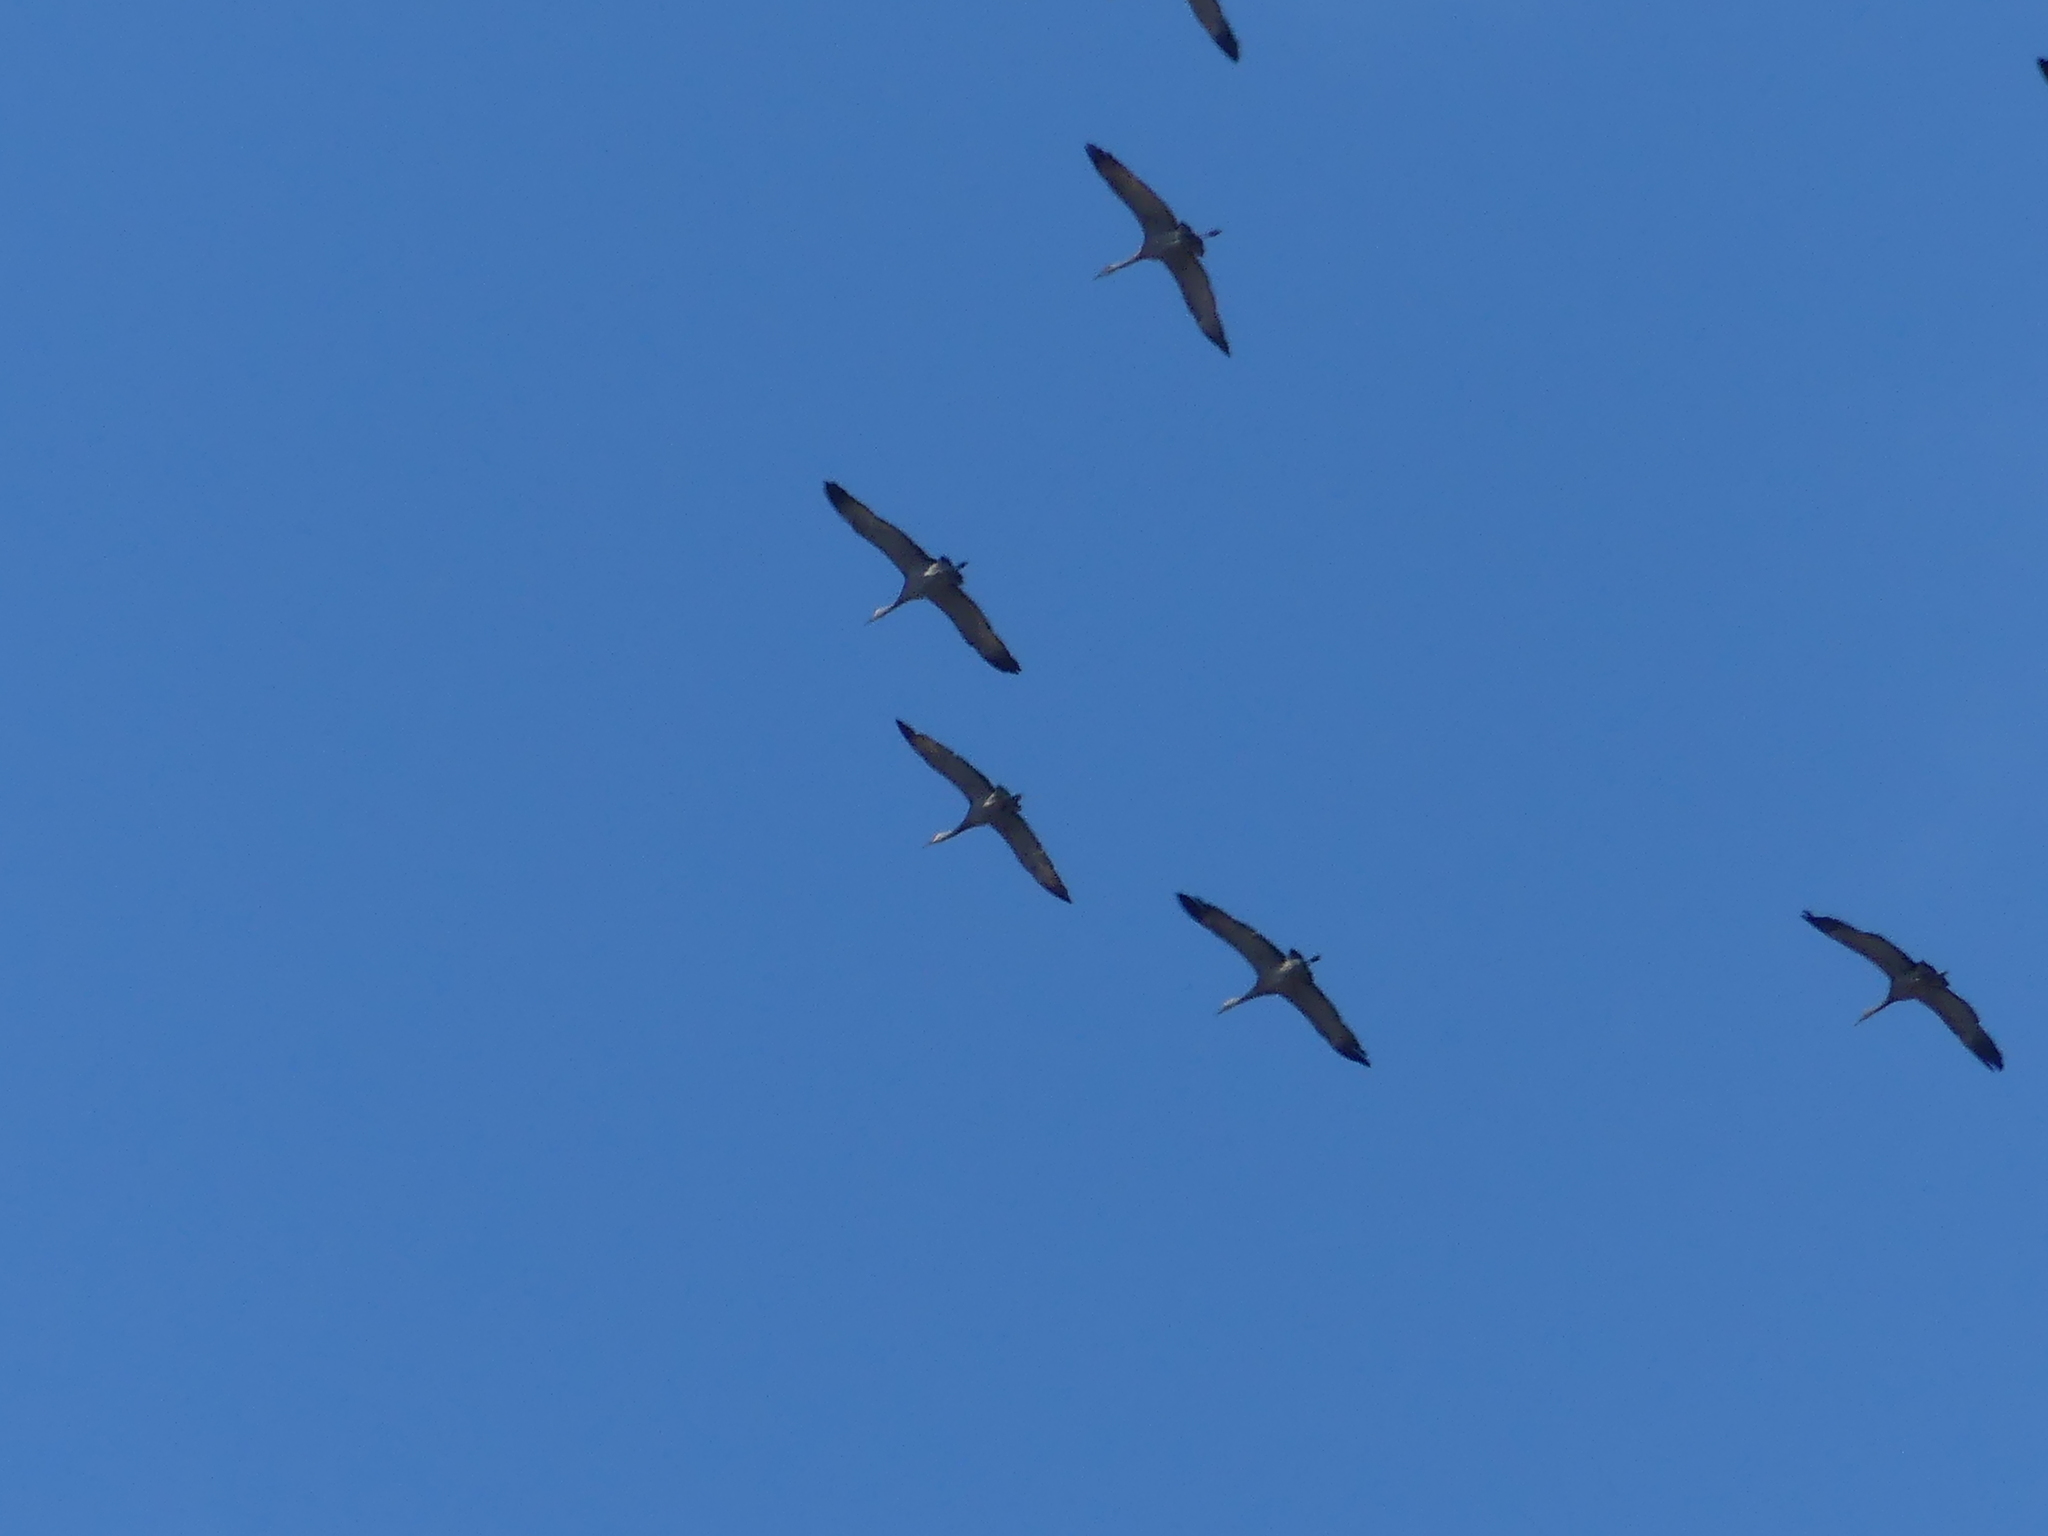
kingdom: Animalia
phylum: Chordata
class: Aves
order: Gruiformes
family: Gruidae
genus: Grus
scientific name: Grus canadensis
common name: Sandhill crane
